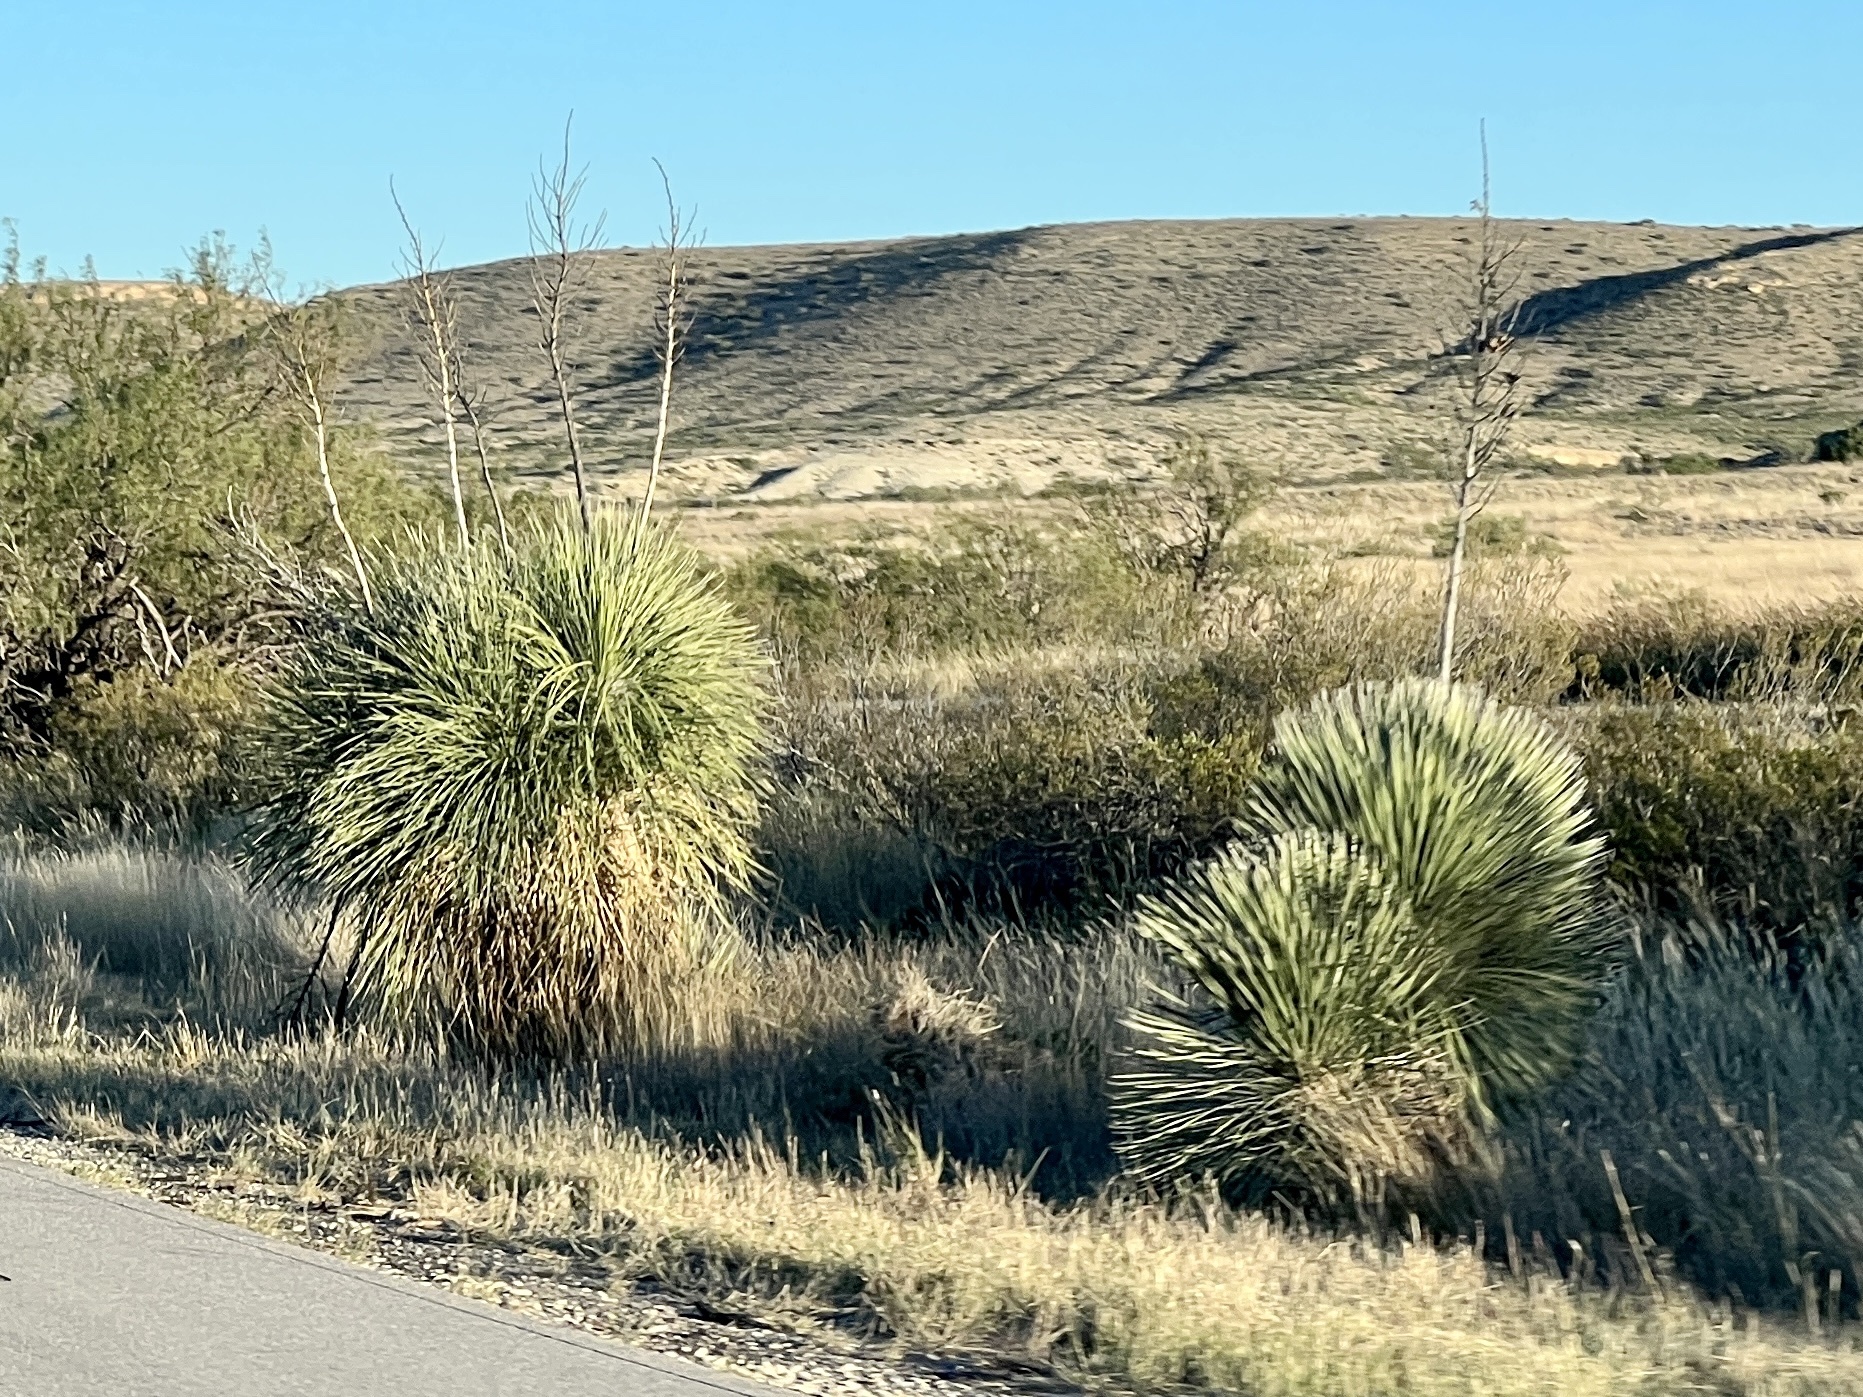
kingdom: Plantae
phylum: Tracheophyta
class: Liliopsida
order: Asparagales
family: Asparagaceae
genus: Yucca
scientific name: Yucca elata
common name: Palmella
